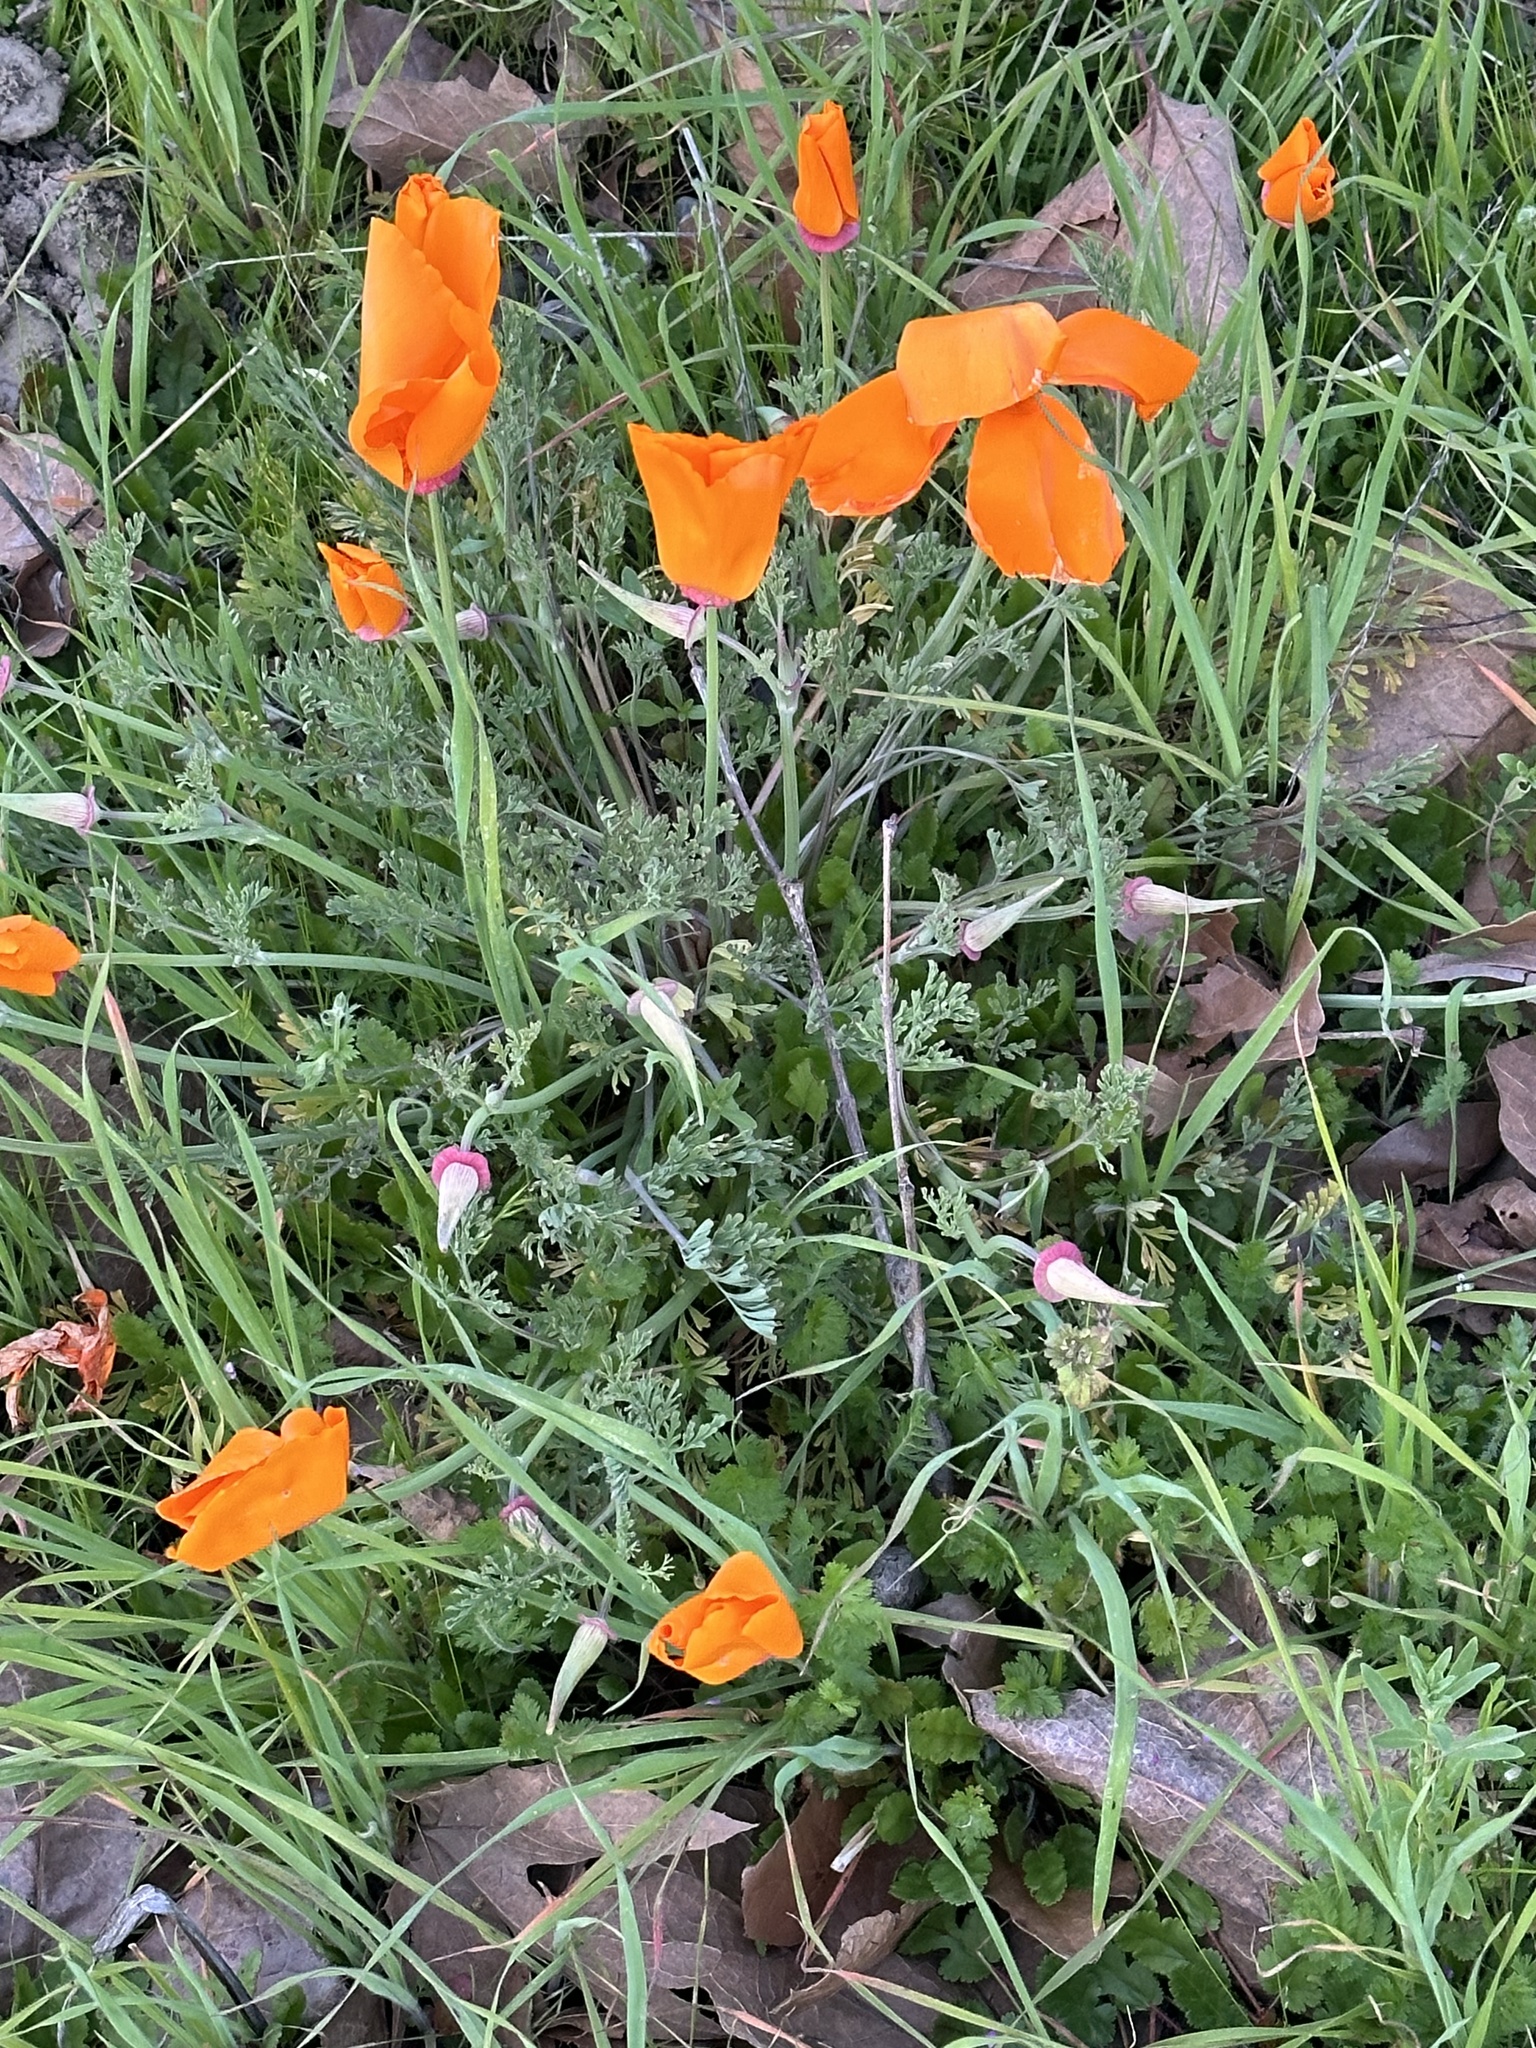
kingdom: Plantae
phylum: Tracheophyta
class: Magnoliopsida
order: Ranunculales
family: Papaveraceae
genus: Eschscholzia
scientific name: Eschscholzia californica
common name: California poppy
